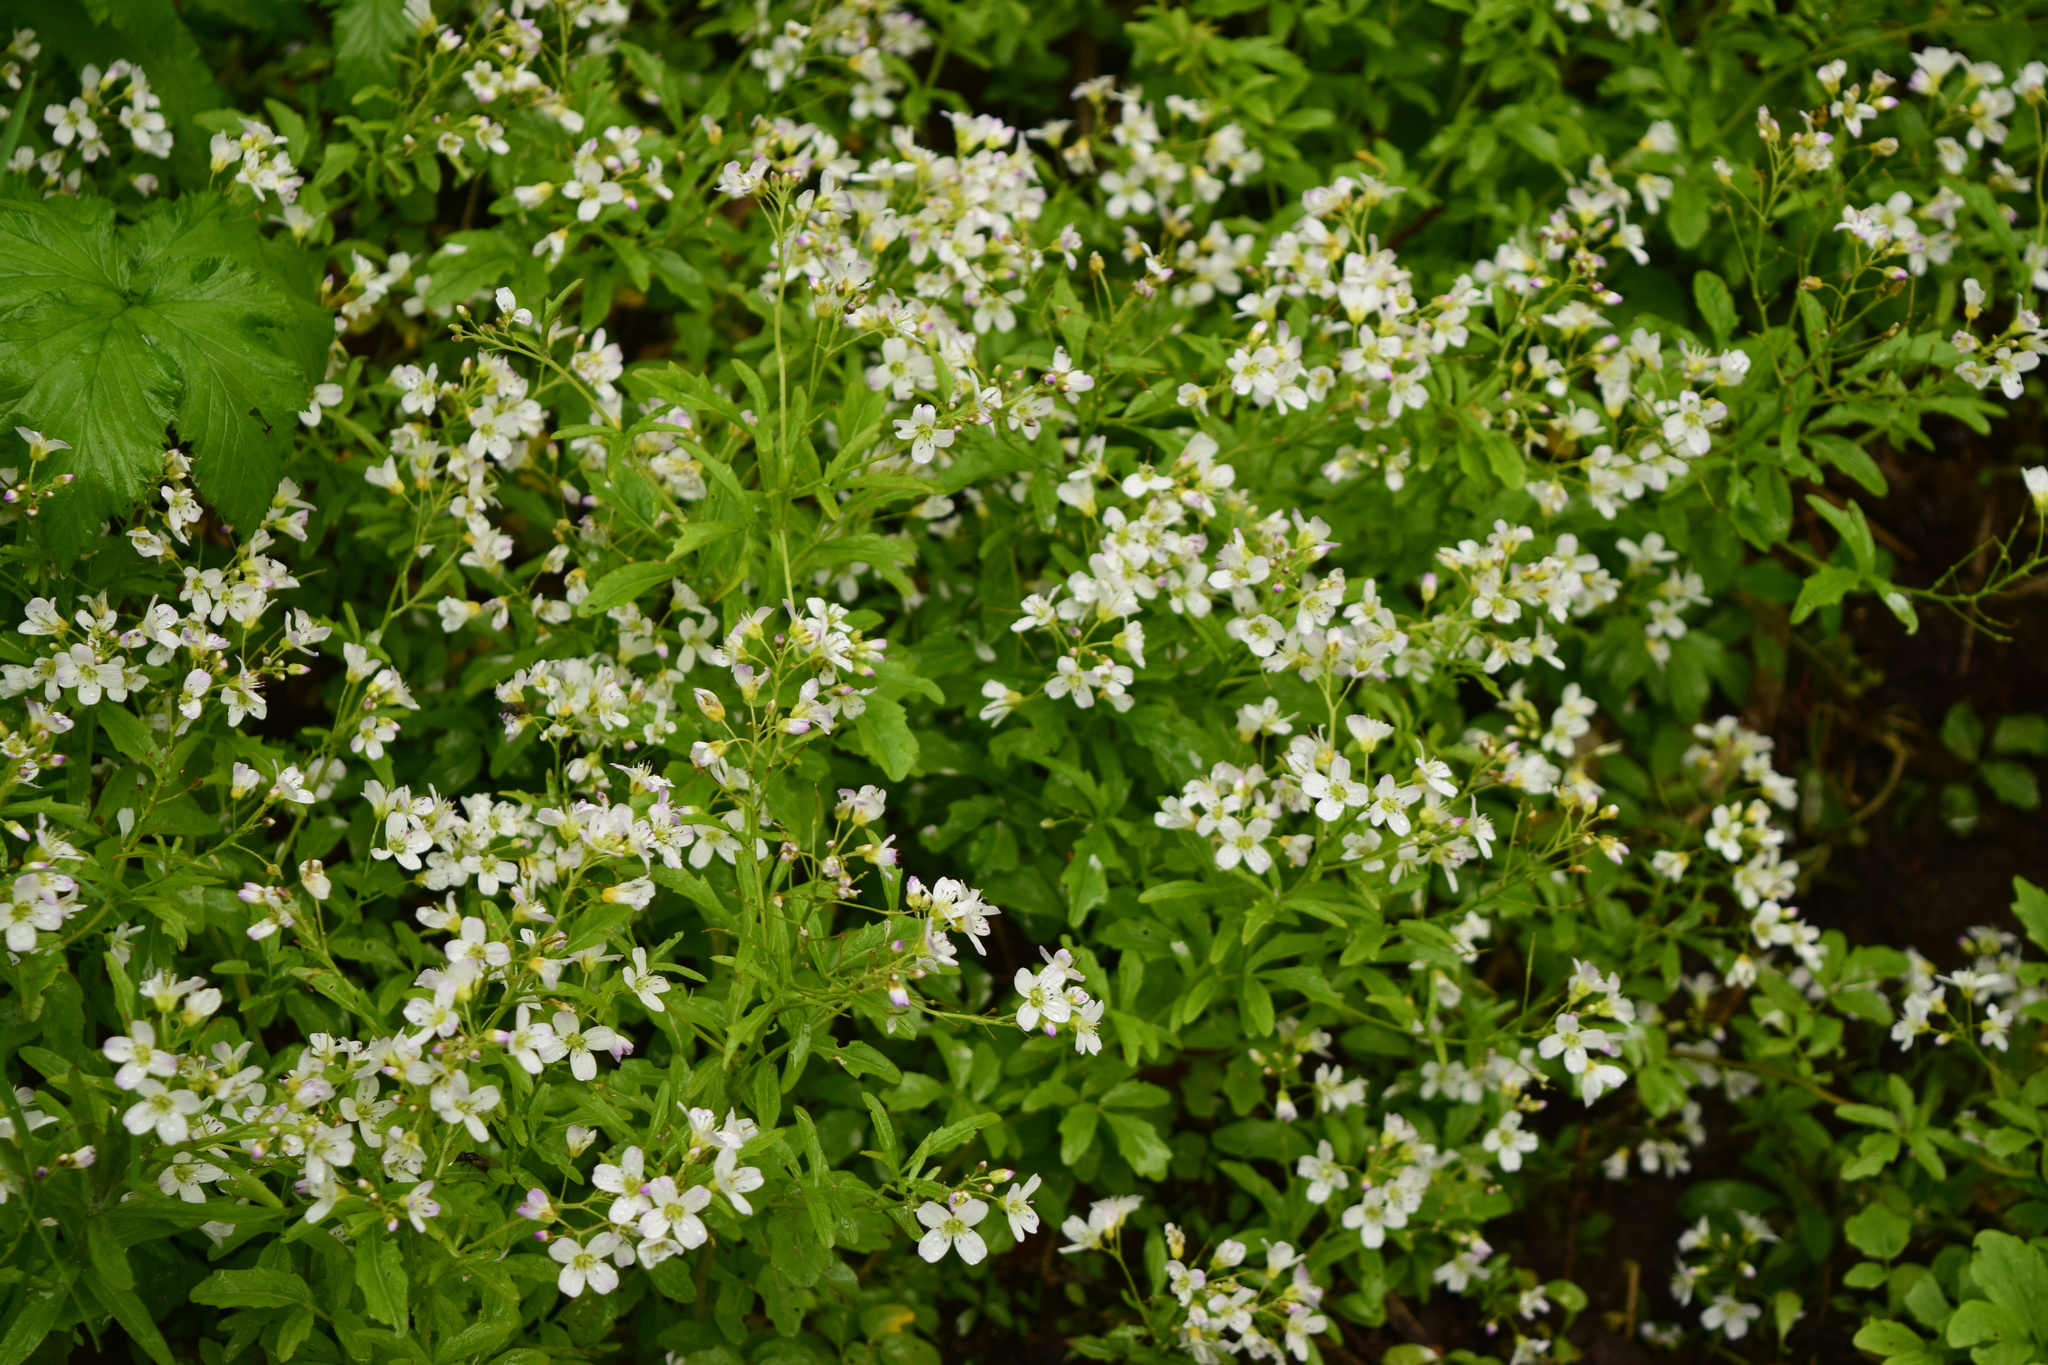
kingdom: Plantae
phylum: Tracheophyta
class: Magnoliopsida
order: Brassicales
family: Brassicaceae
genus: Cardamine
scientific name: Cardamine amara
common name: Large bitter-cress
